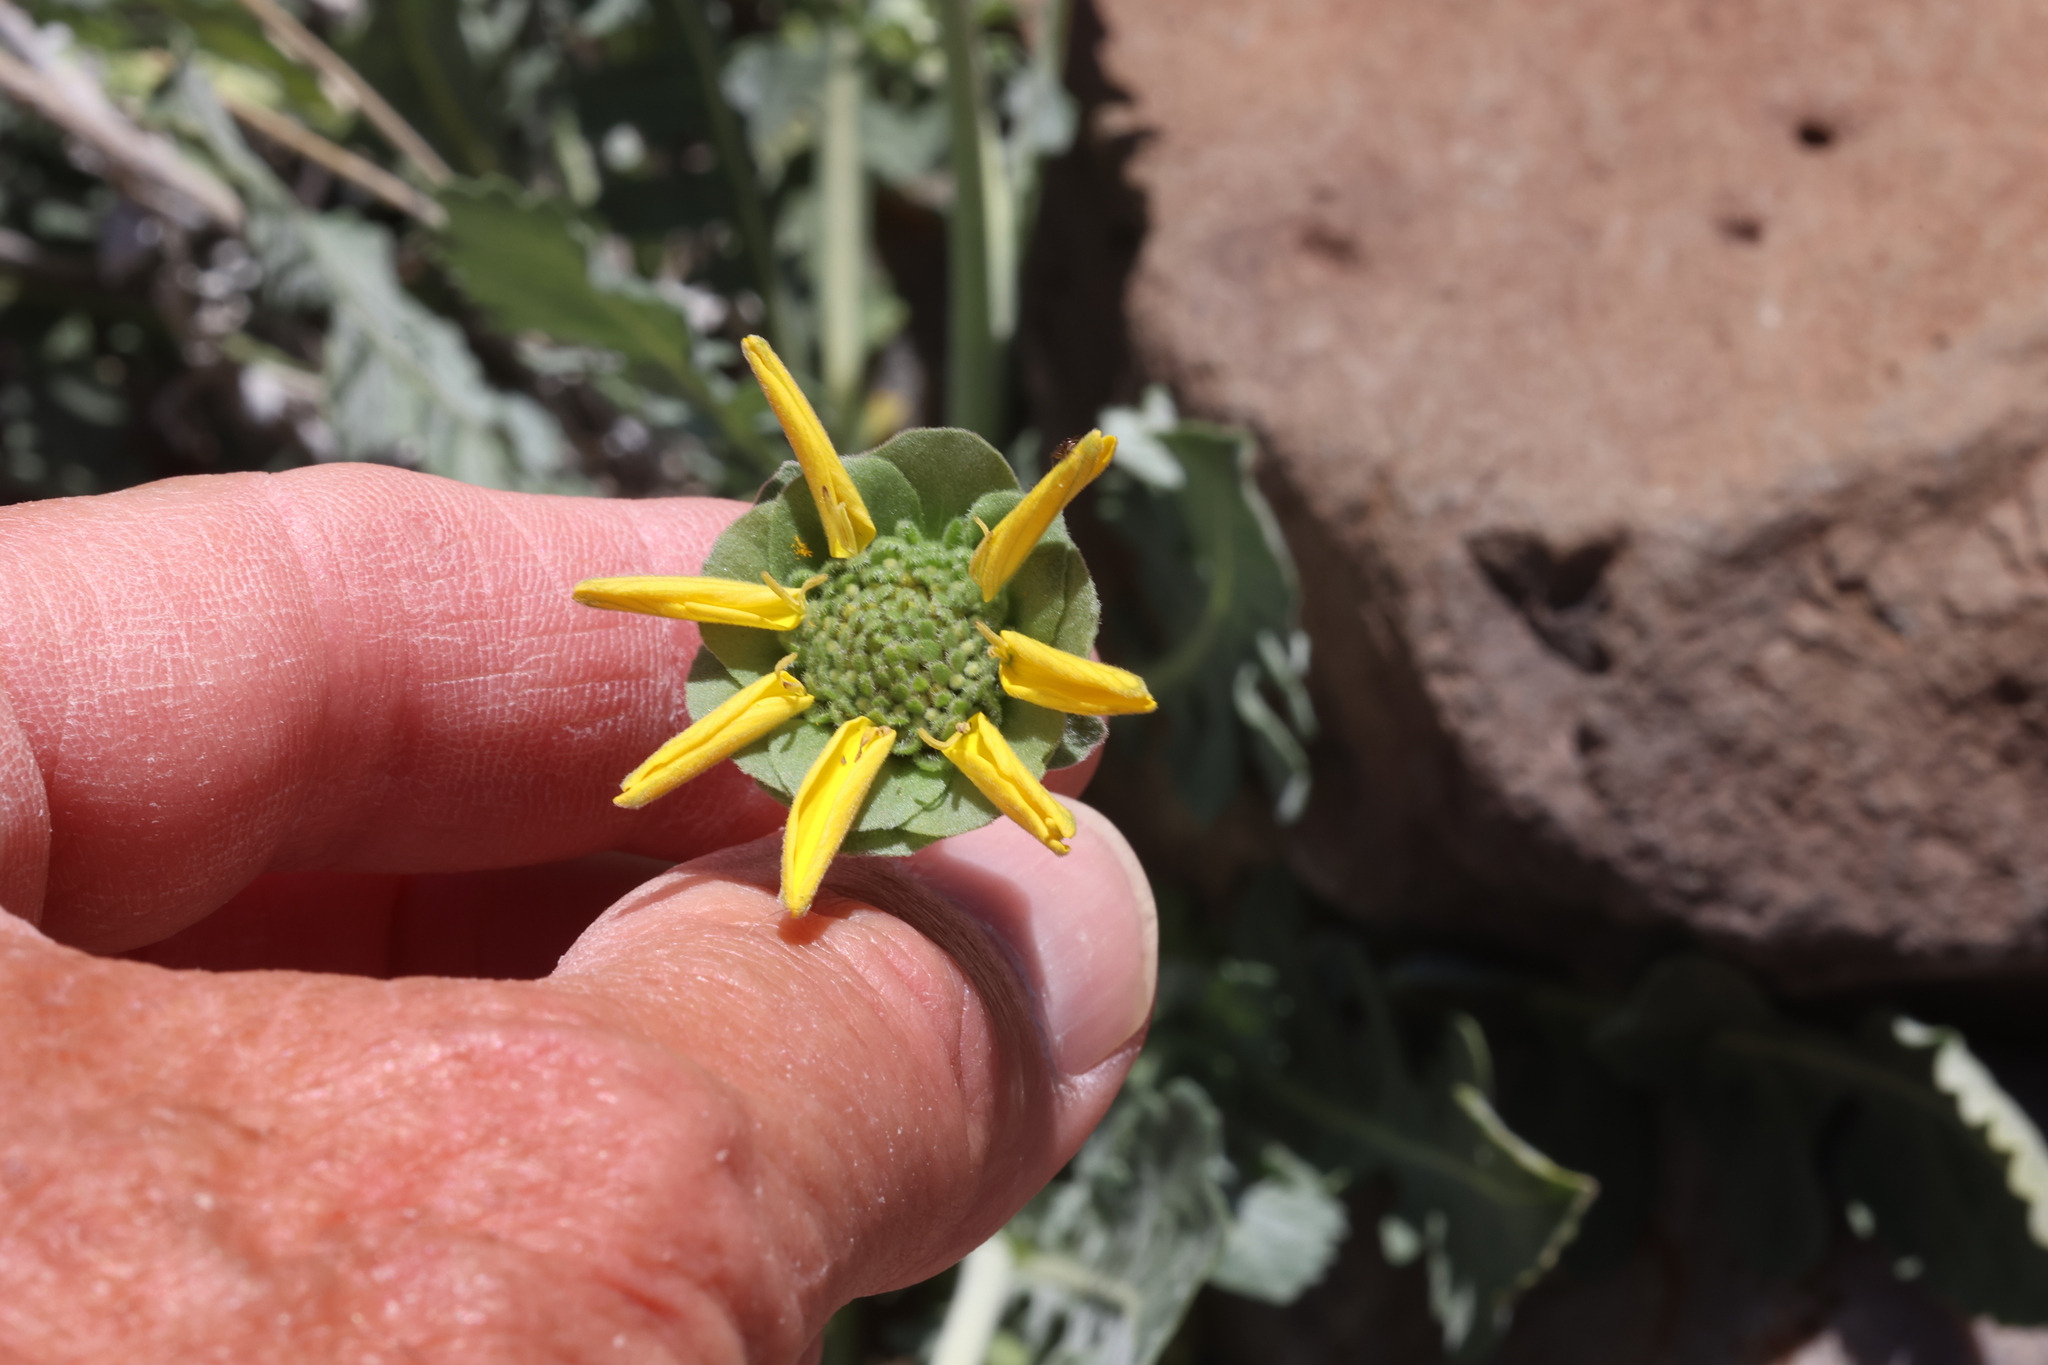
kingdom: Plantae
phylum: Tracheophyta
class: Magnoliopsida
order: Asterales
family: Asteraceae
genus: Berlandiera
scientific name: Berlandiera lyrata
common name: Chocolate-flower
